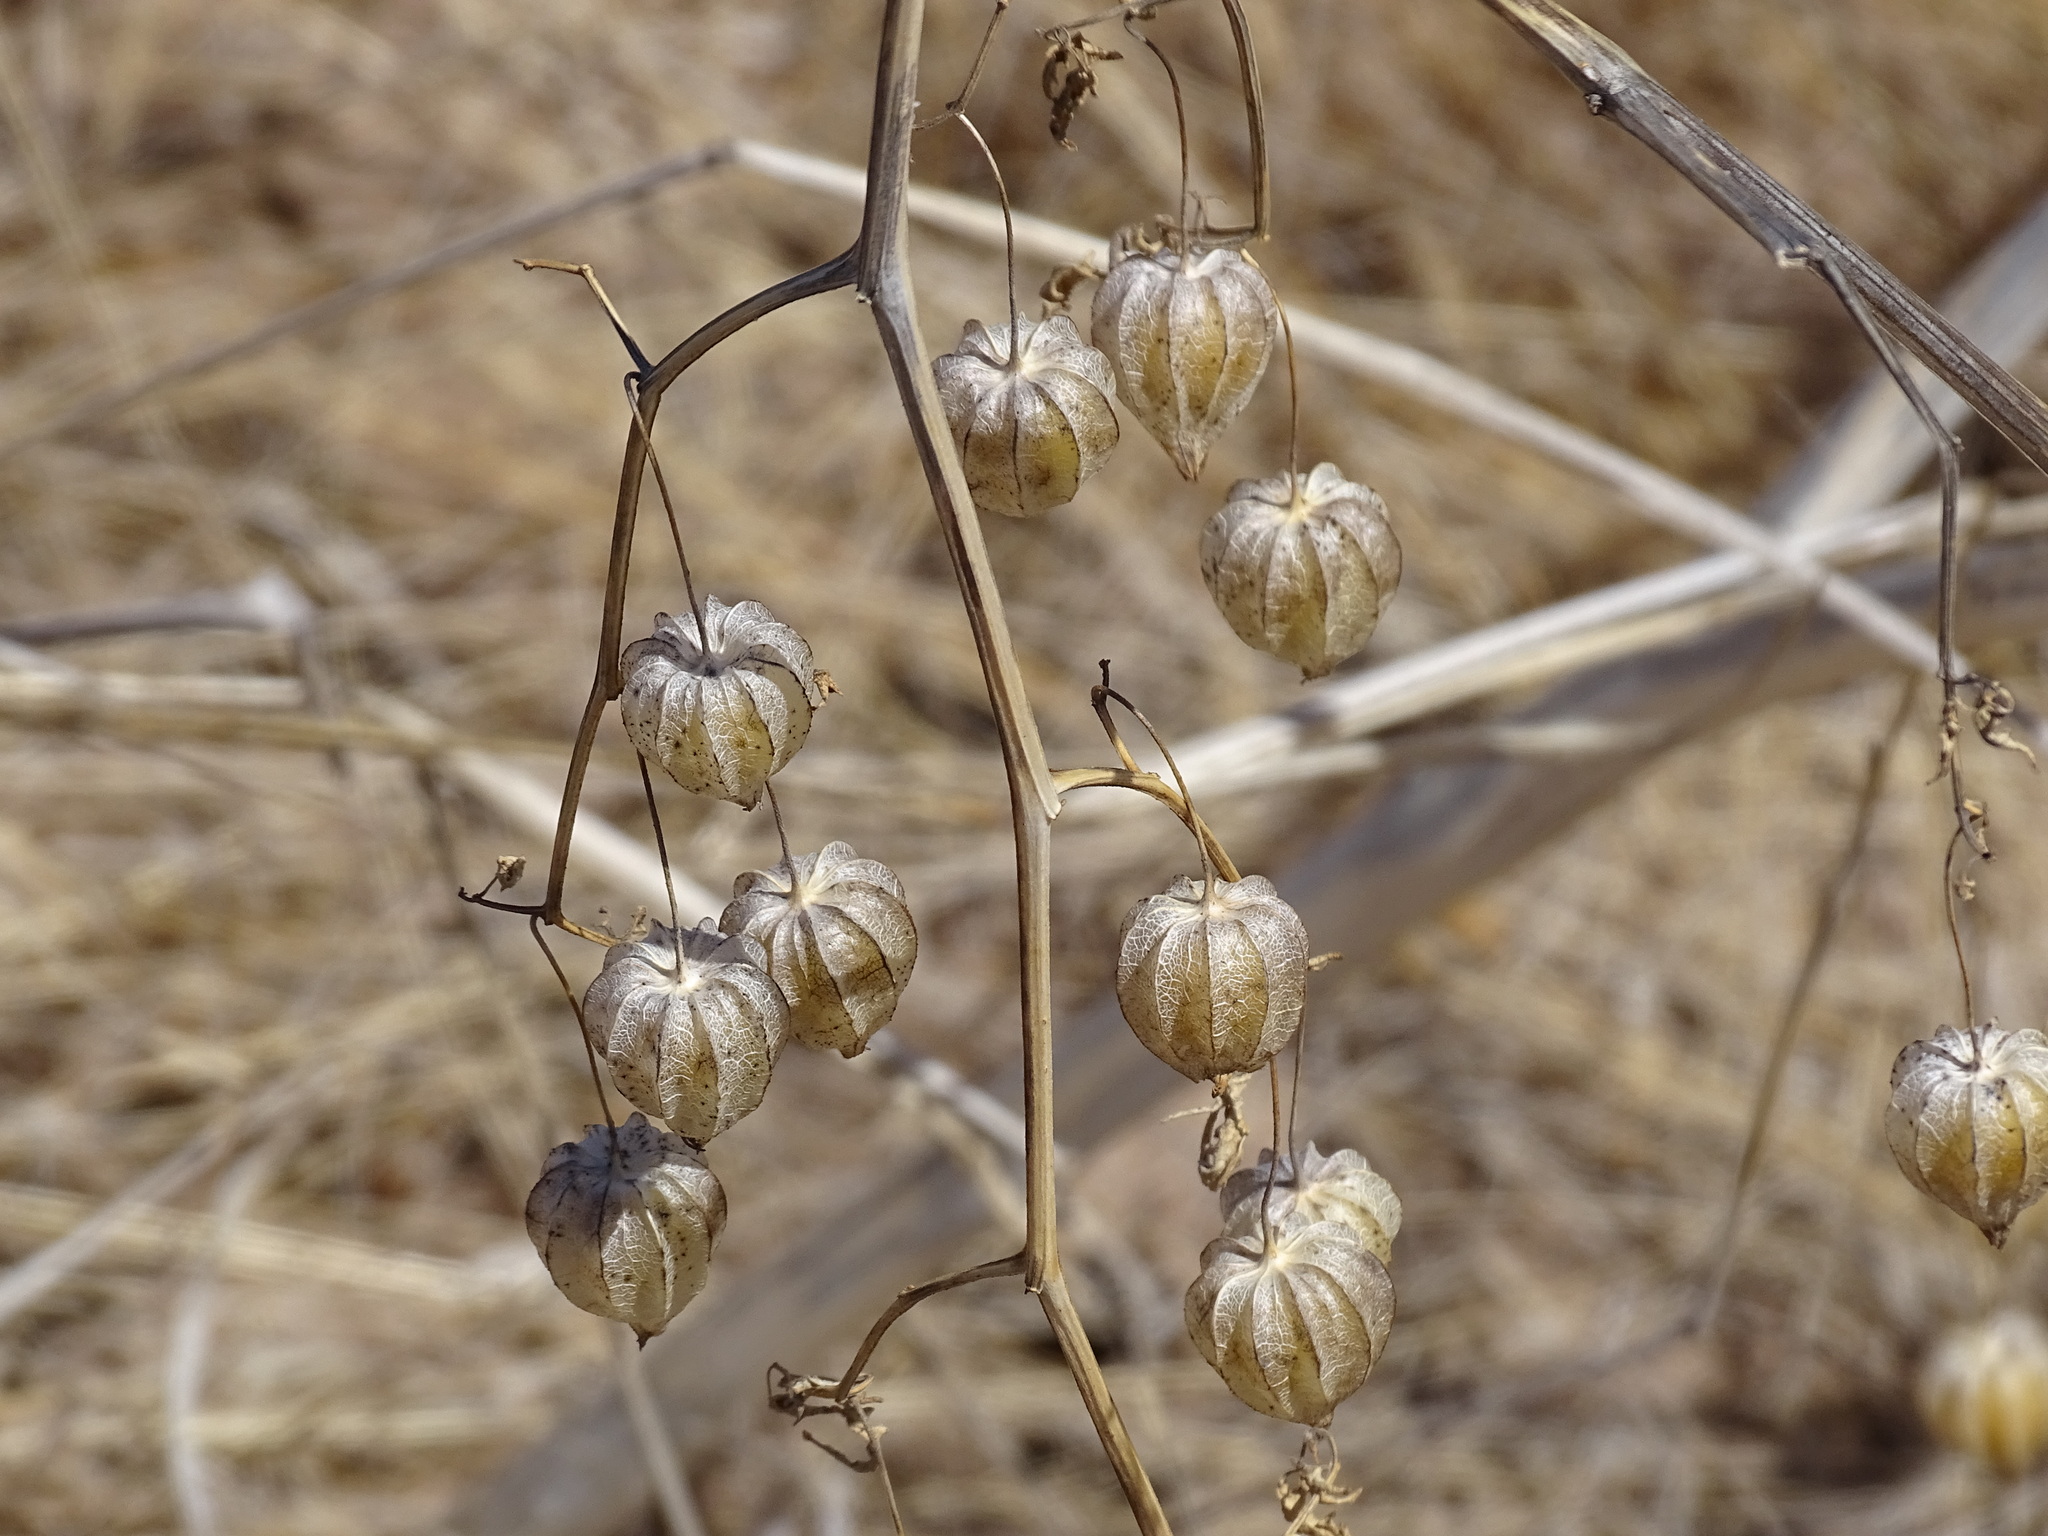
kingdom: Plantae
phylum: Tracheophyta
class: Magnoliopsida
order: Solanales
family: Solanaceae
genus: Physalis
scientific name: Physalis acutifolia
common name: Wright's ground-cherry
